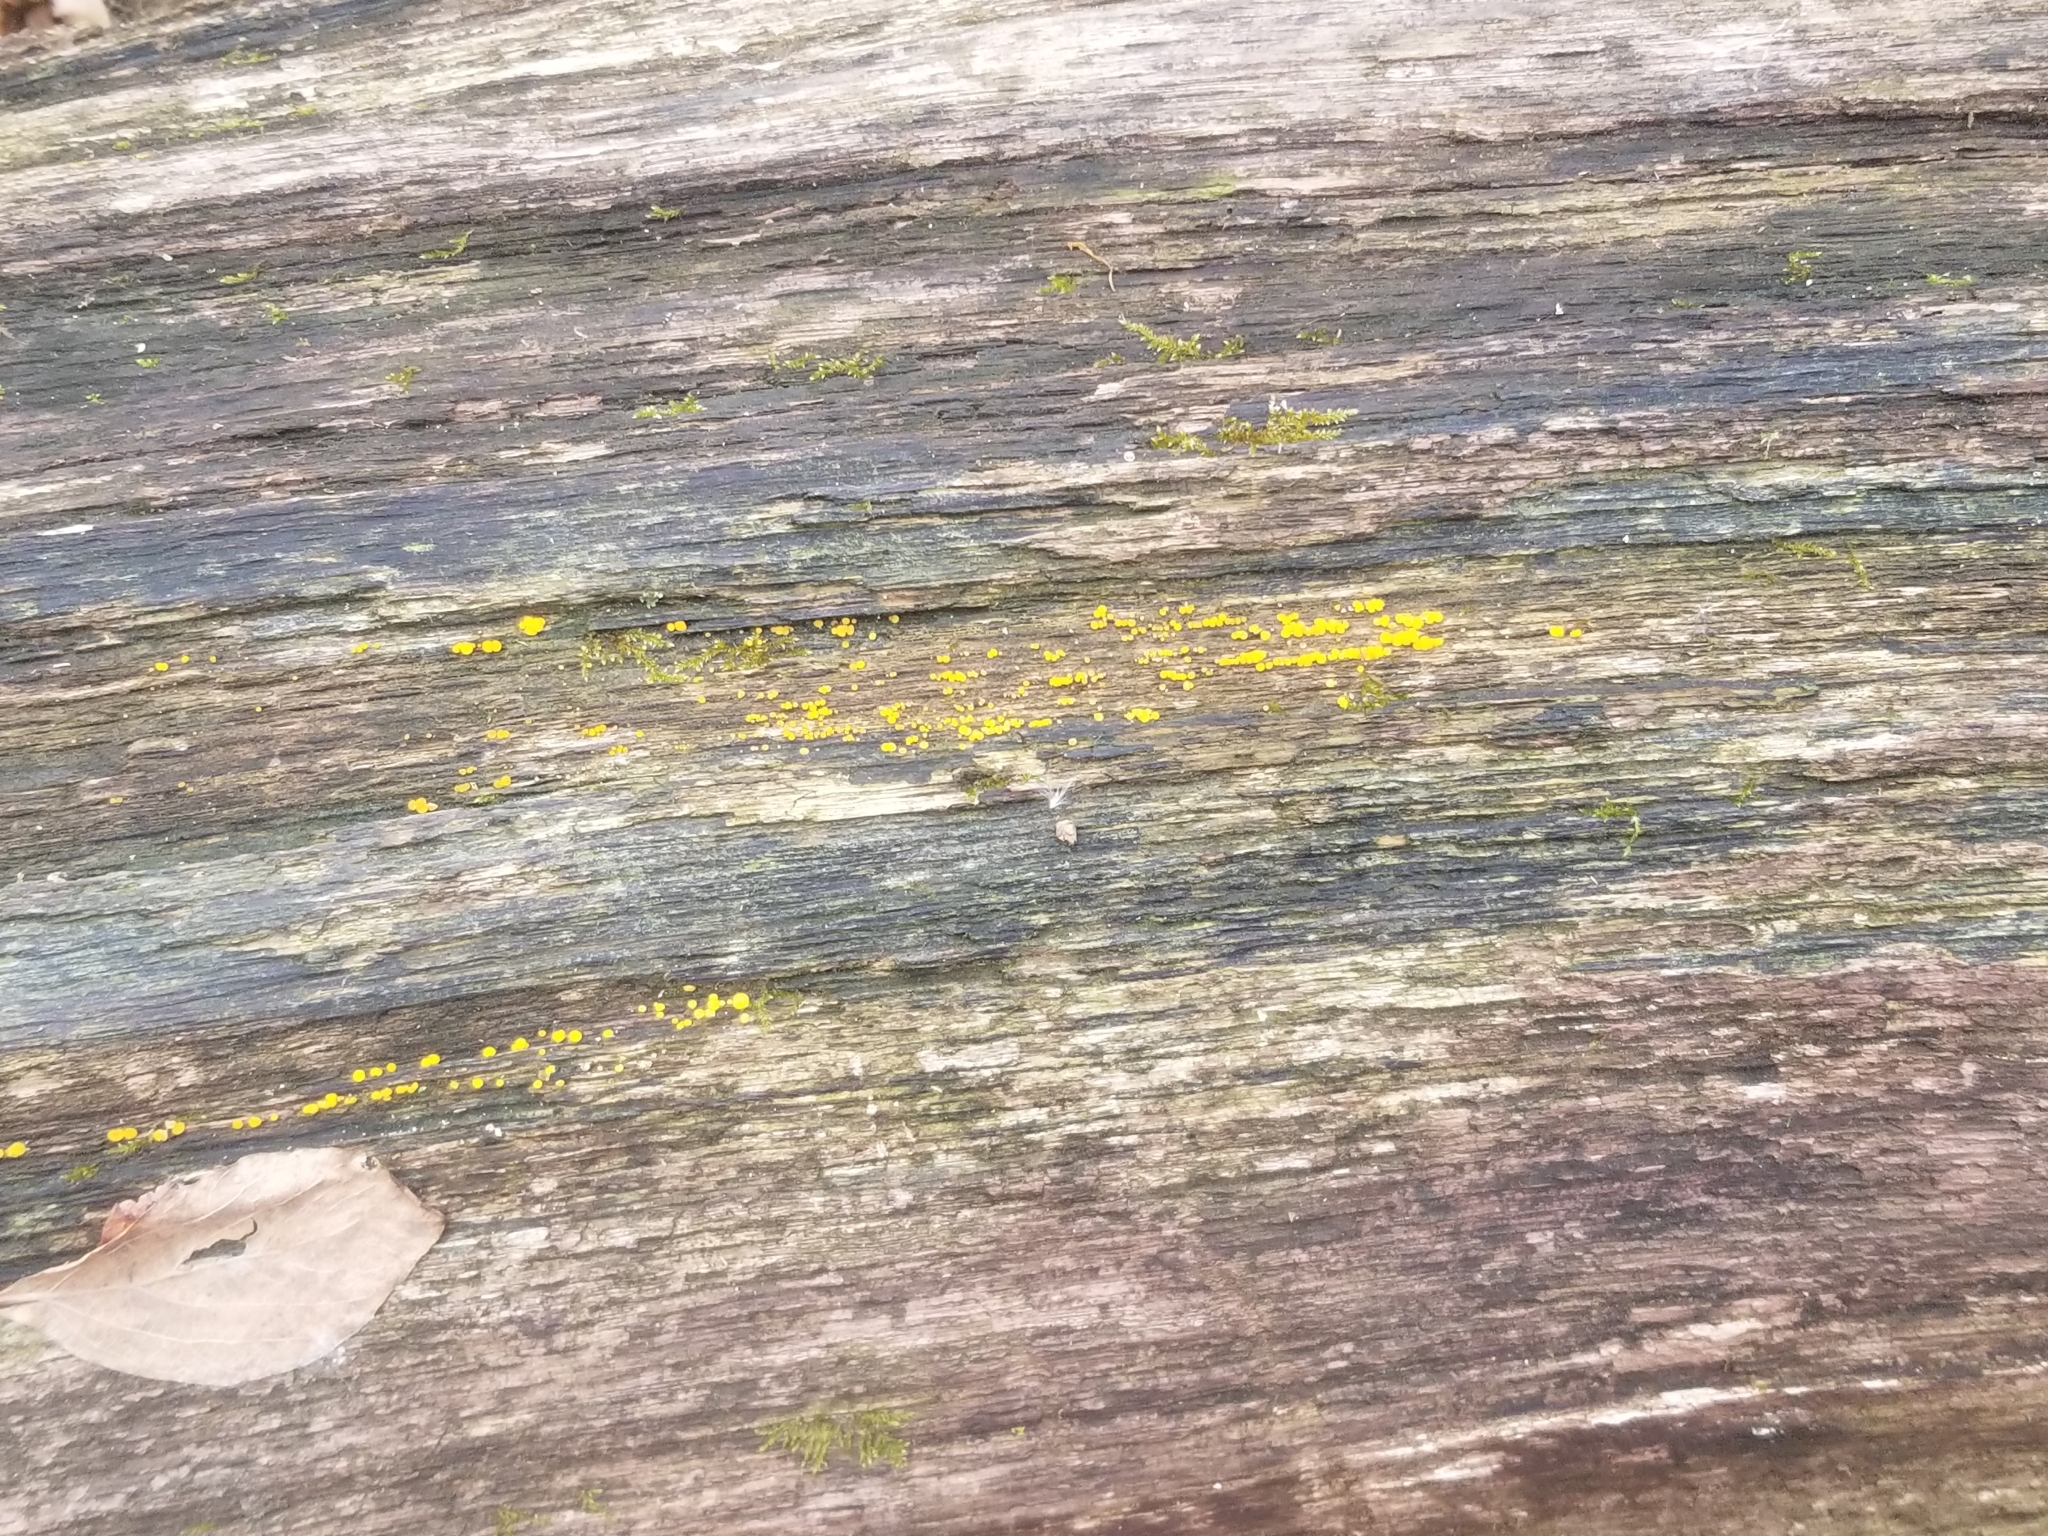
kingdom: Fungi
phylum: Ascomycota
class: Leotiomycetes
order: Helotiales
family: Pezizellaceae
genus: Calycina
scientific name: Calycina citrina
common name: Yellow fairy cups
